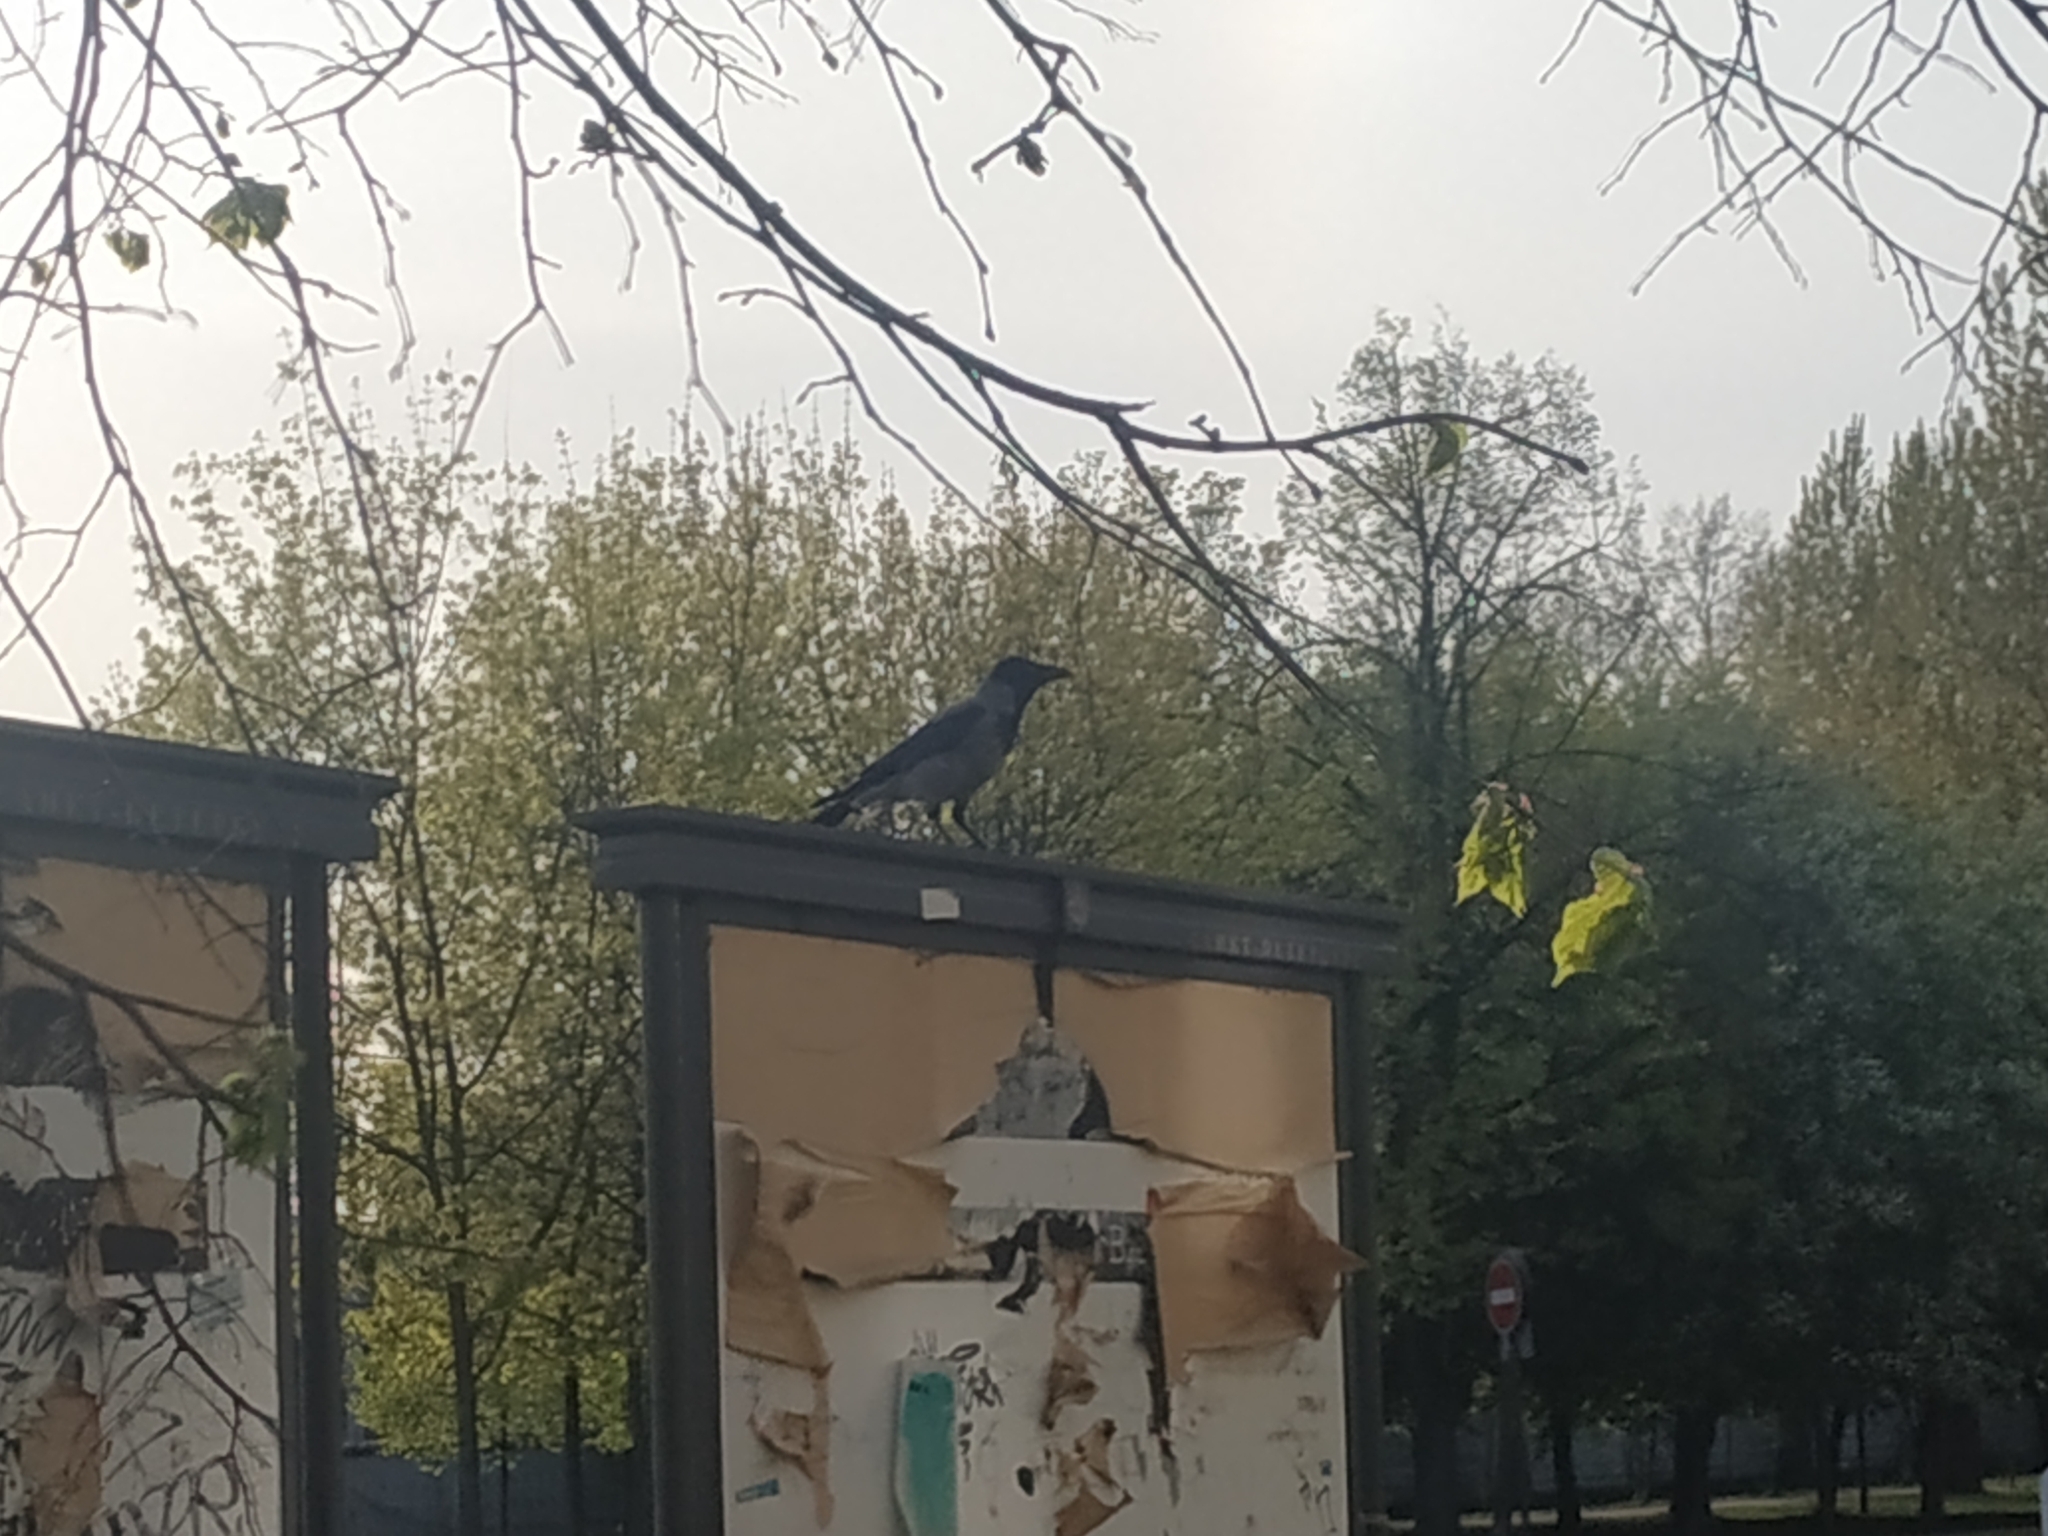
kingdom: Animalia
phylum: Chordata
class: Aves
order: Passeriformes
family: Corvidae
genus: Corvus
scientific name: Corvus cornix
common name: Hooded crow
